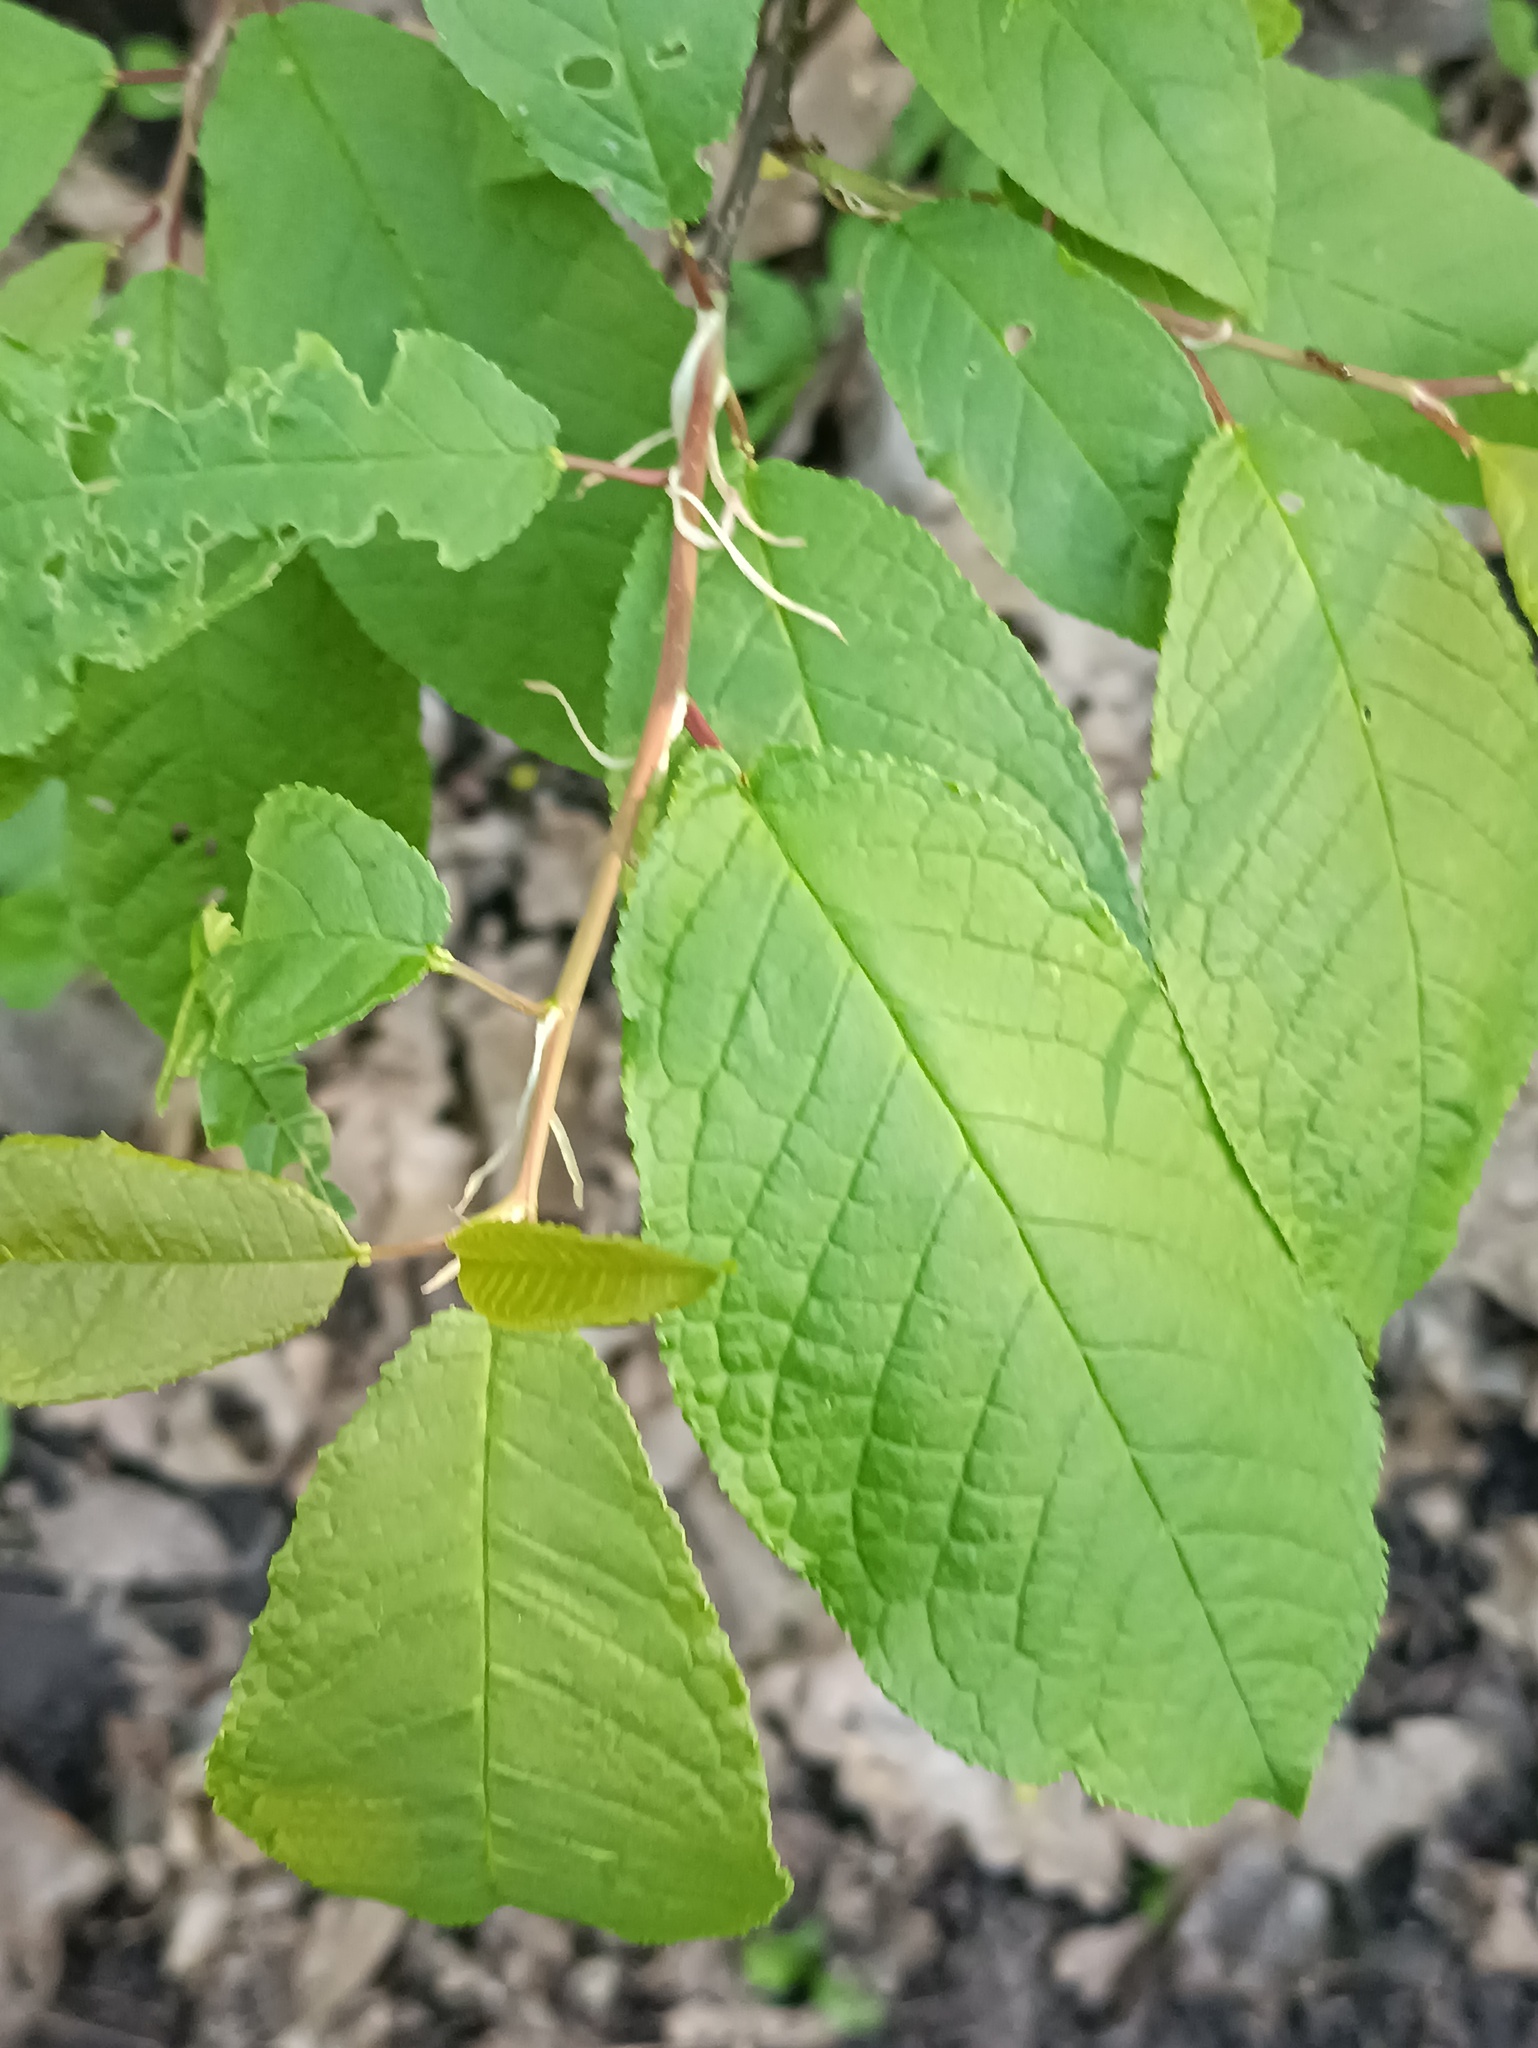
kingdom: Plantae
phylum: Tracheophyta
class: Magnoliopsida
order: Rosales
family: Rosaceae
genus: Prunus
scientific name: Prunus padus
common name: Bird cherry
